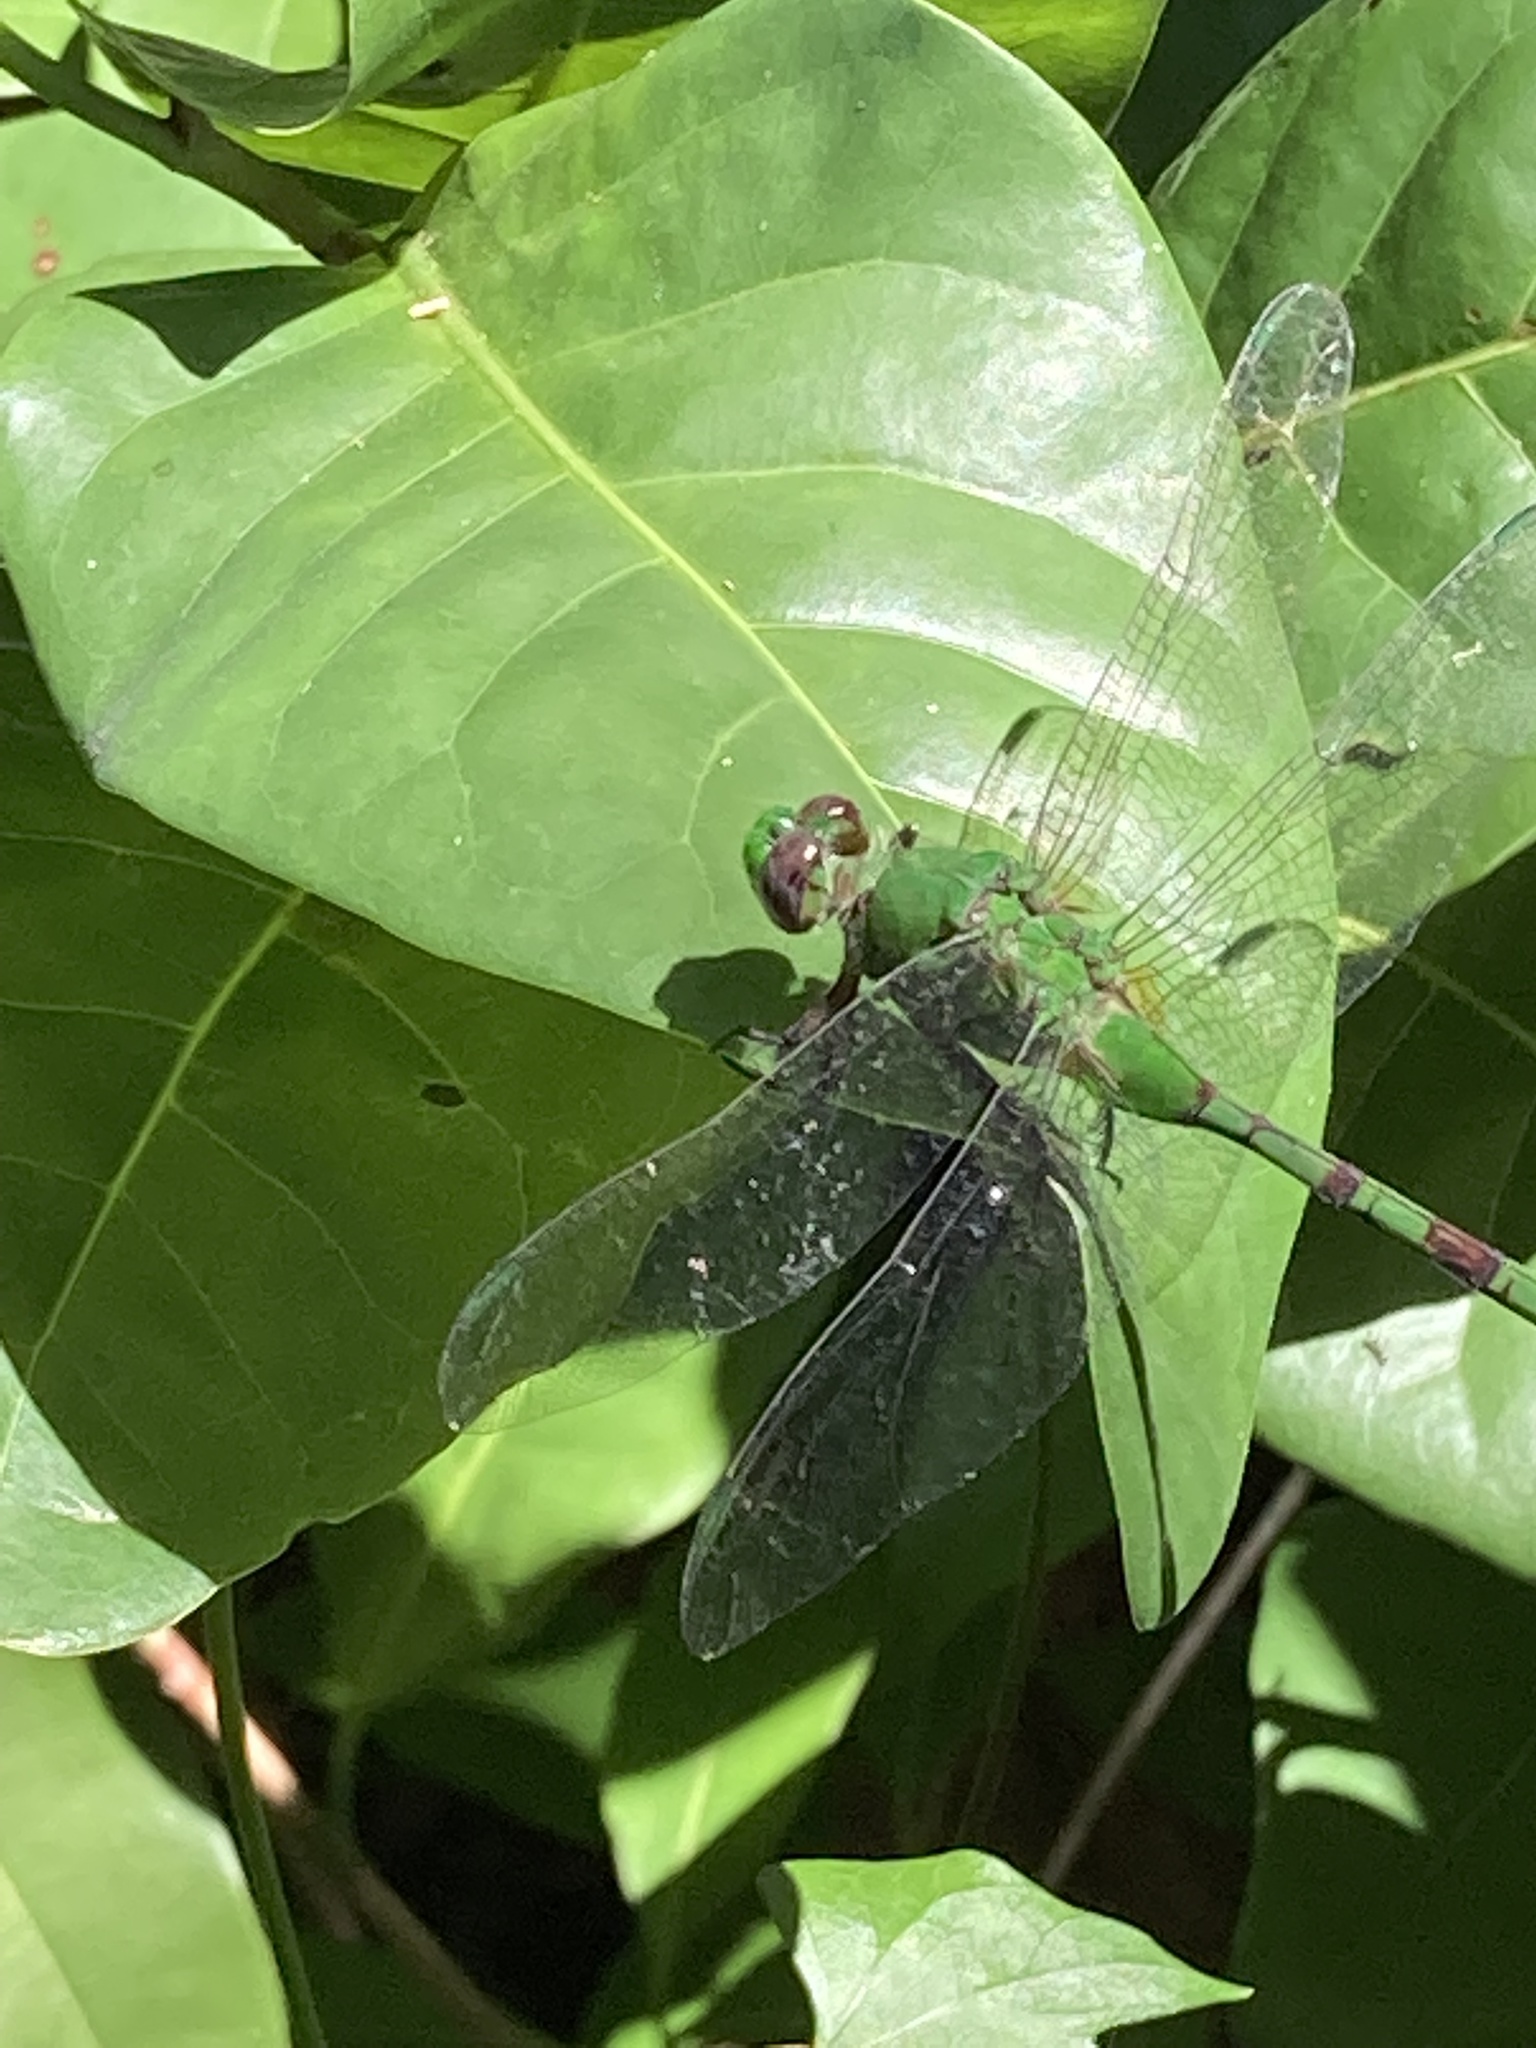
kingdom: Animalia
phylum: Arthropoda
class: Insecta
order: Odonata
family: Libellulidae
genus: Erythemis
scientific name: Erythemis vesiculosa
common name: Great pondhawk
